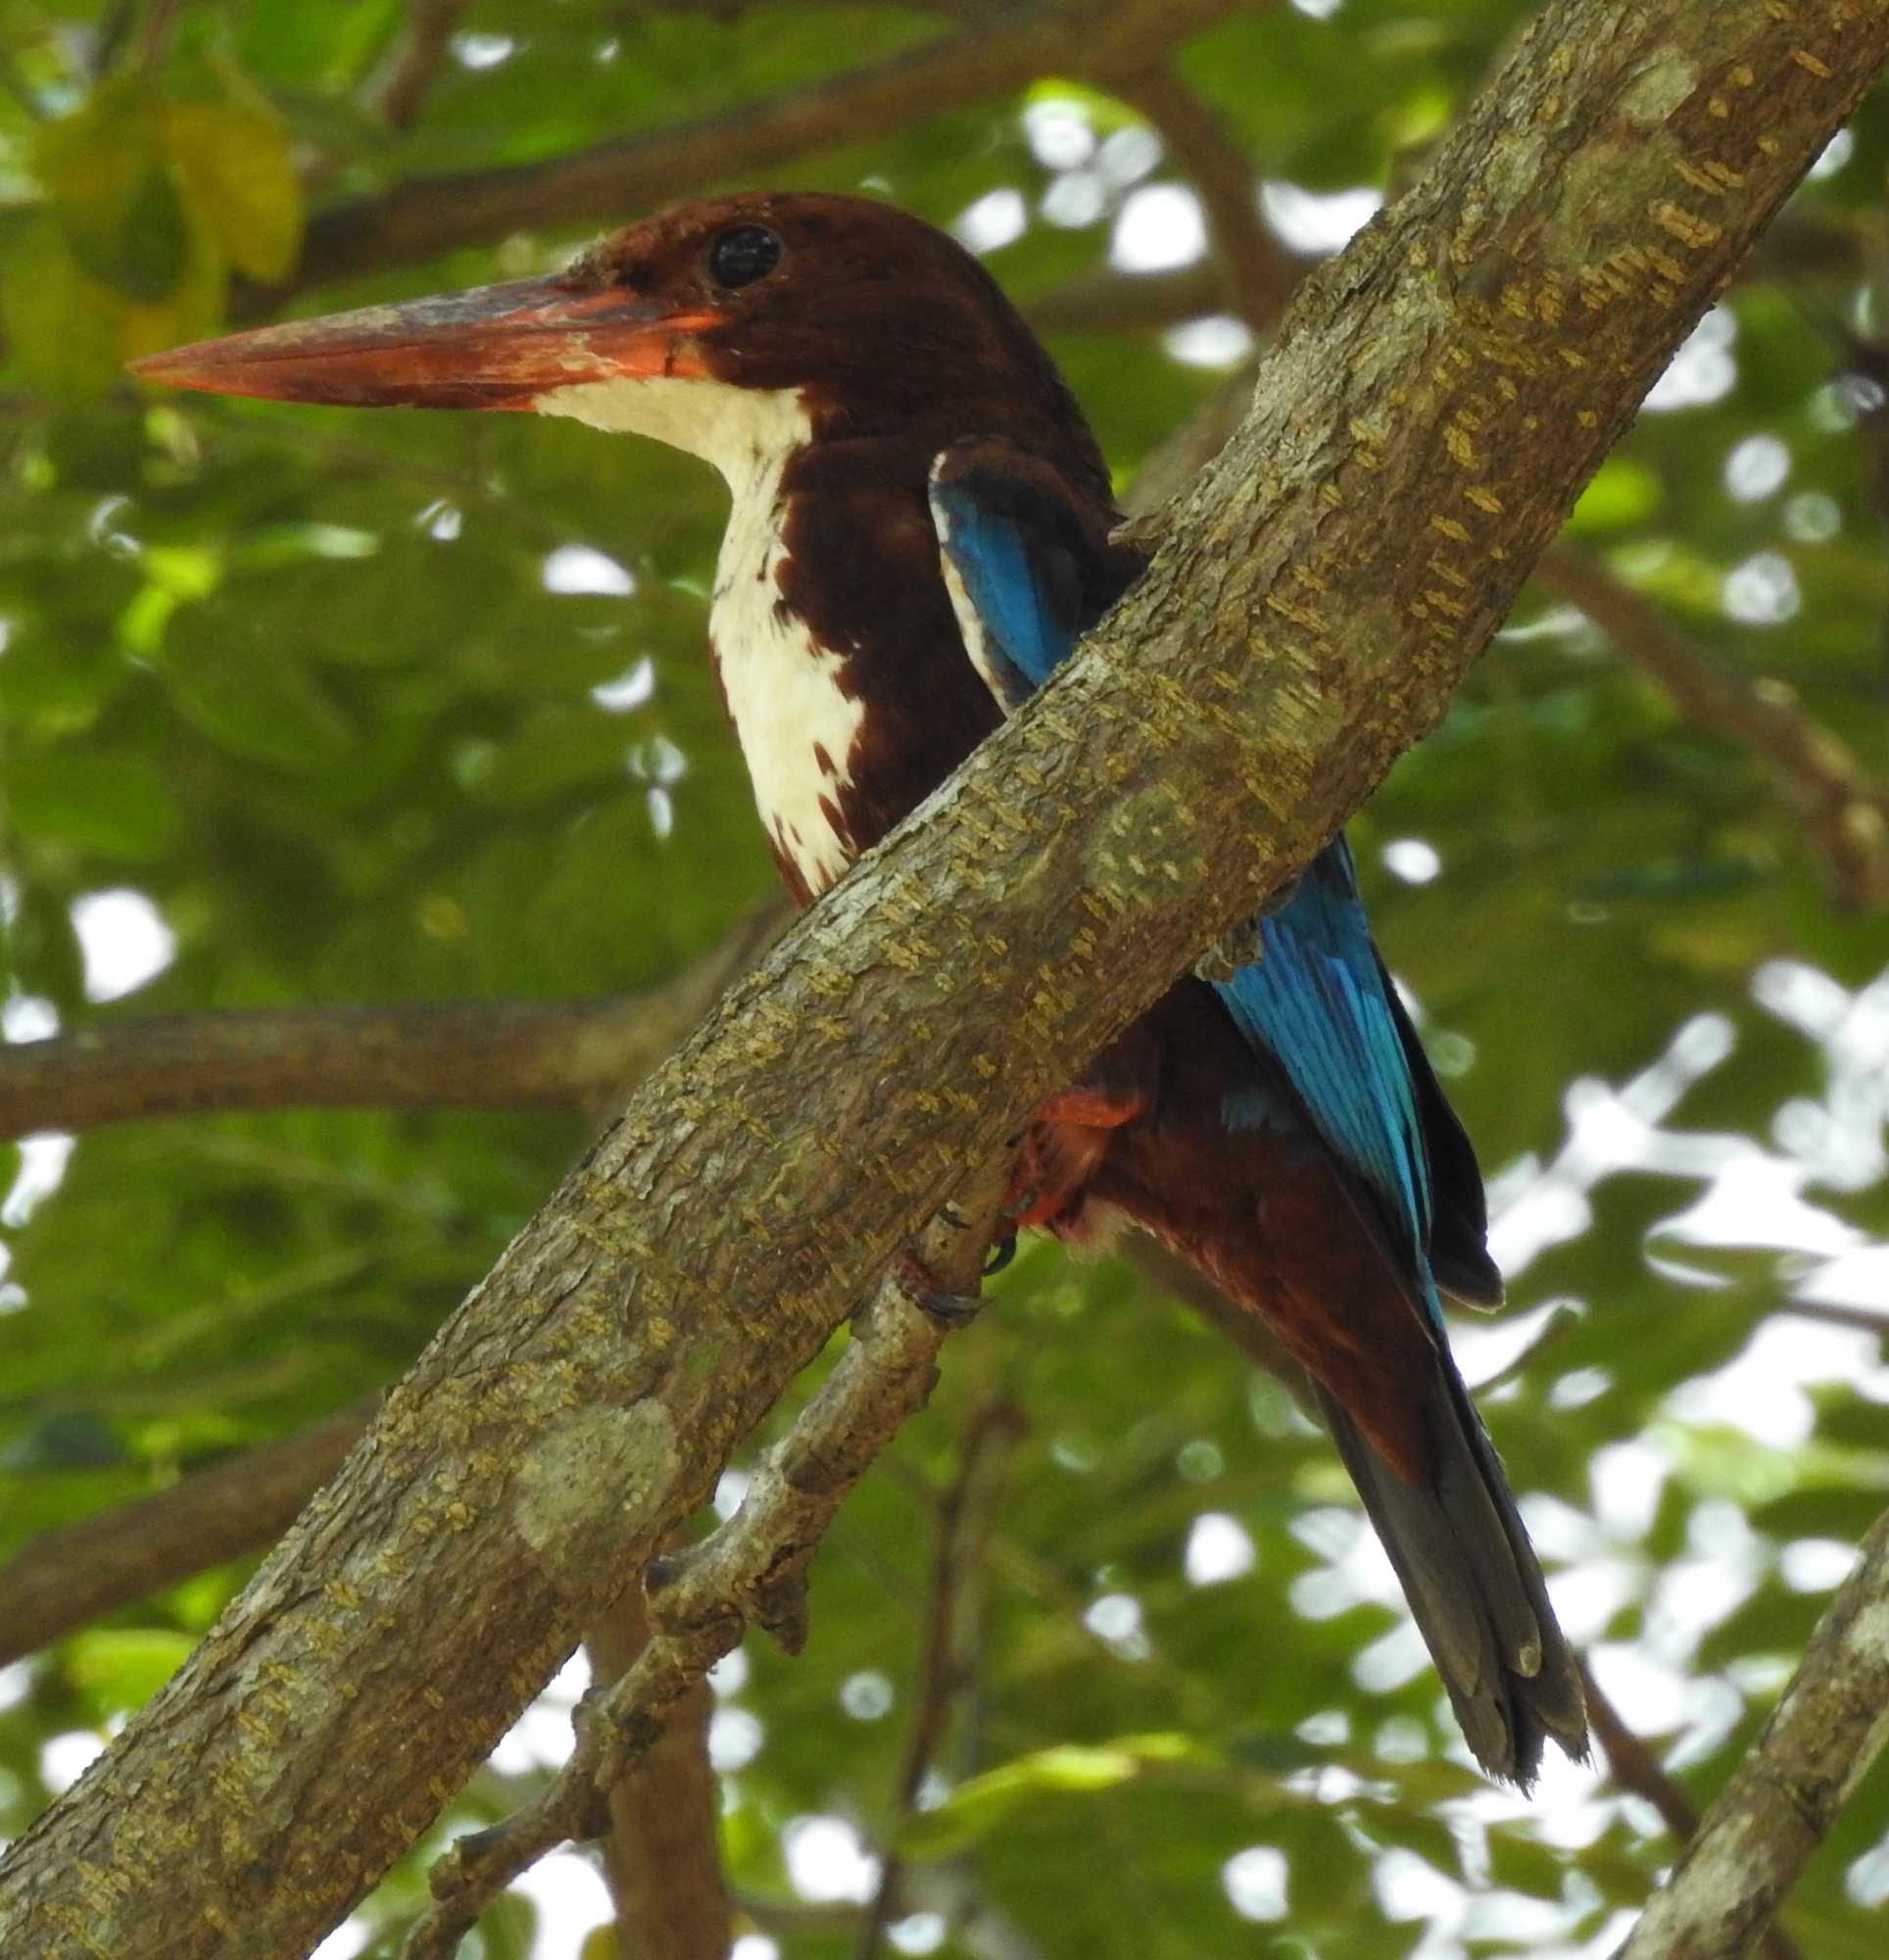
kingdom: Animalia
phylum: Chordata
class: Aves
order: Coraciiformes
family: Alcedinidae
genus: Halcyon
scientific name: Halcyon smyrnensis
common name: White-throated kingfisher
